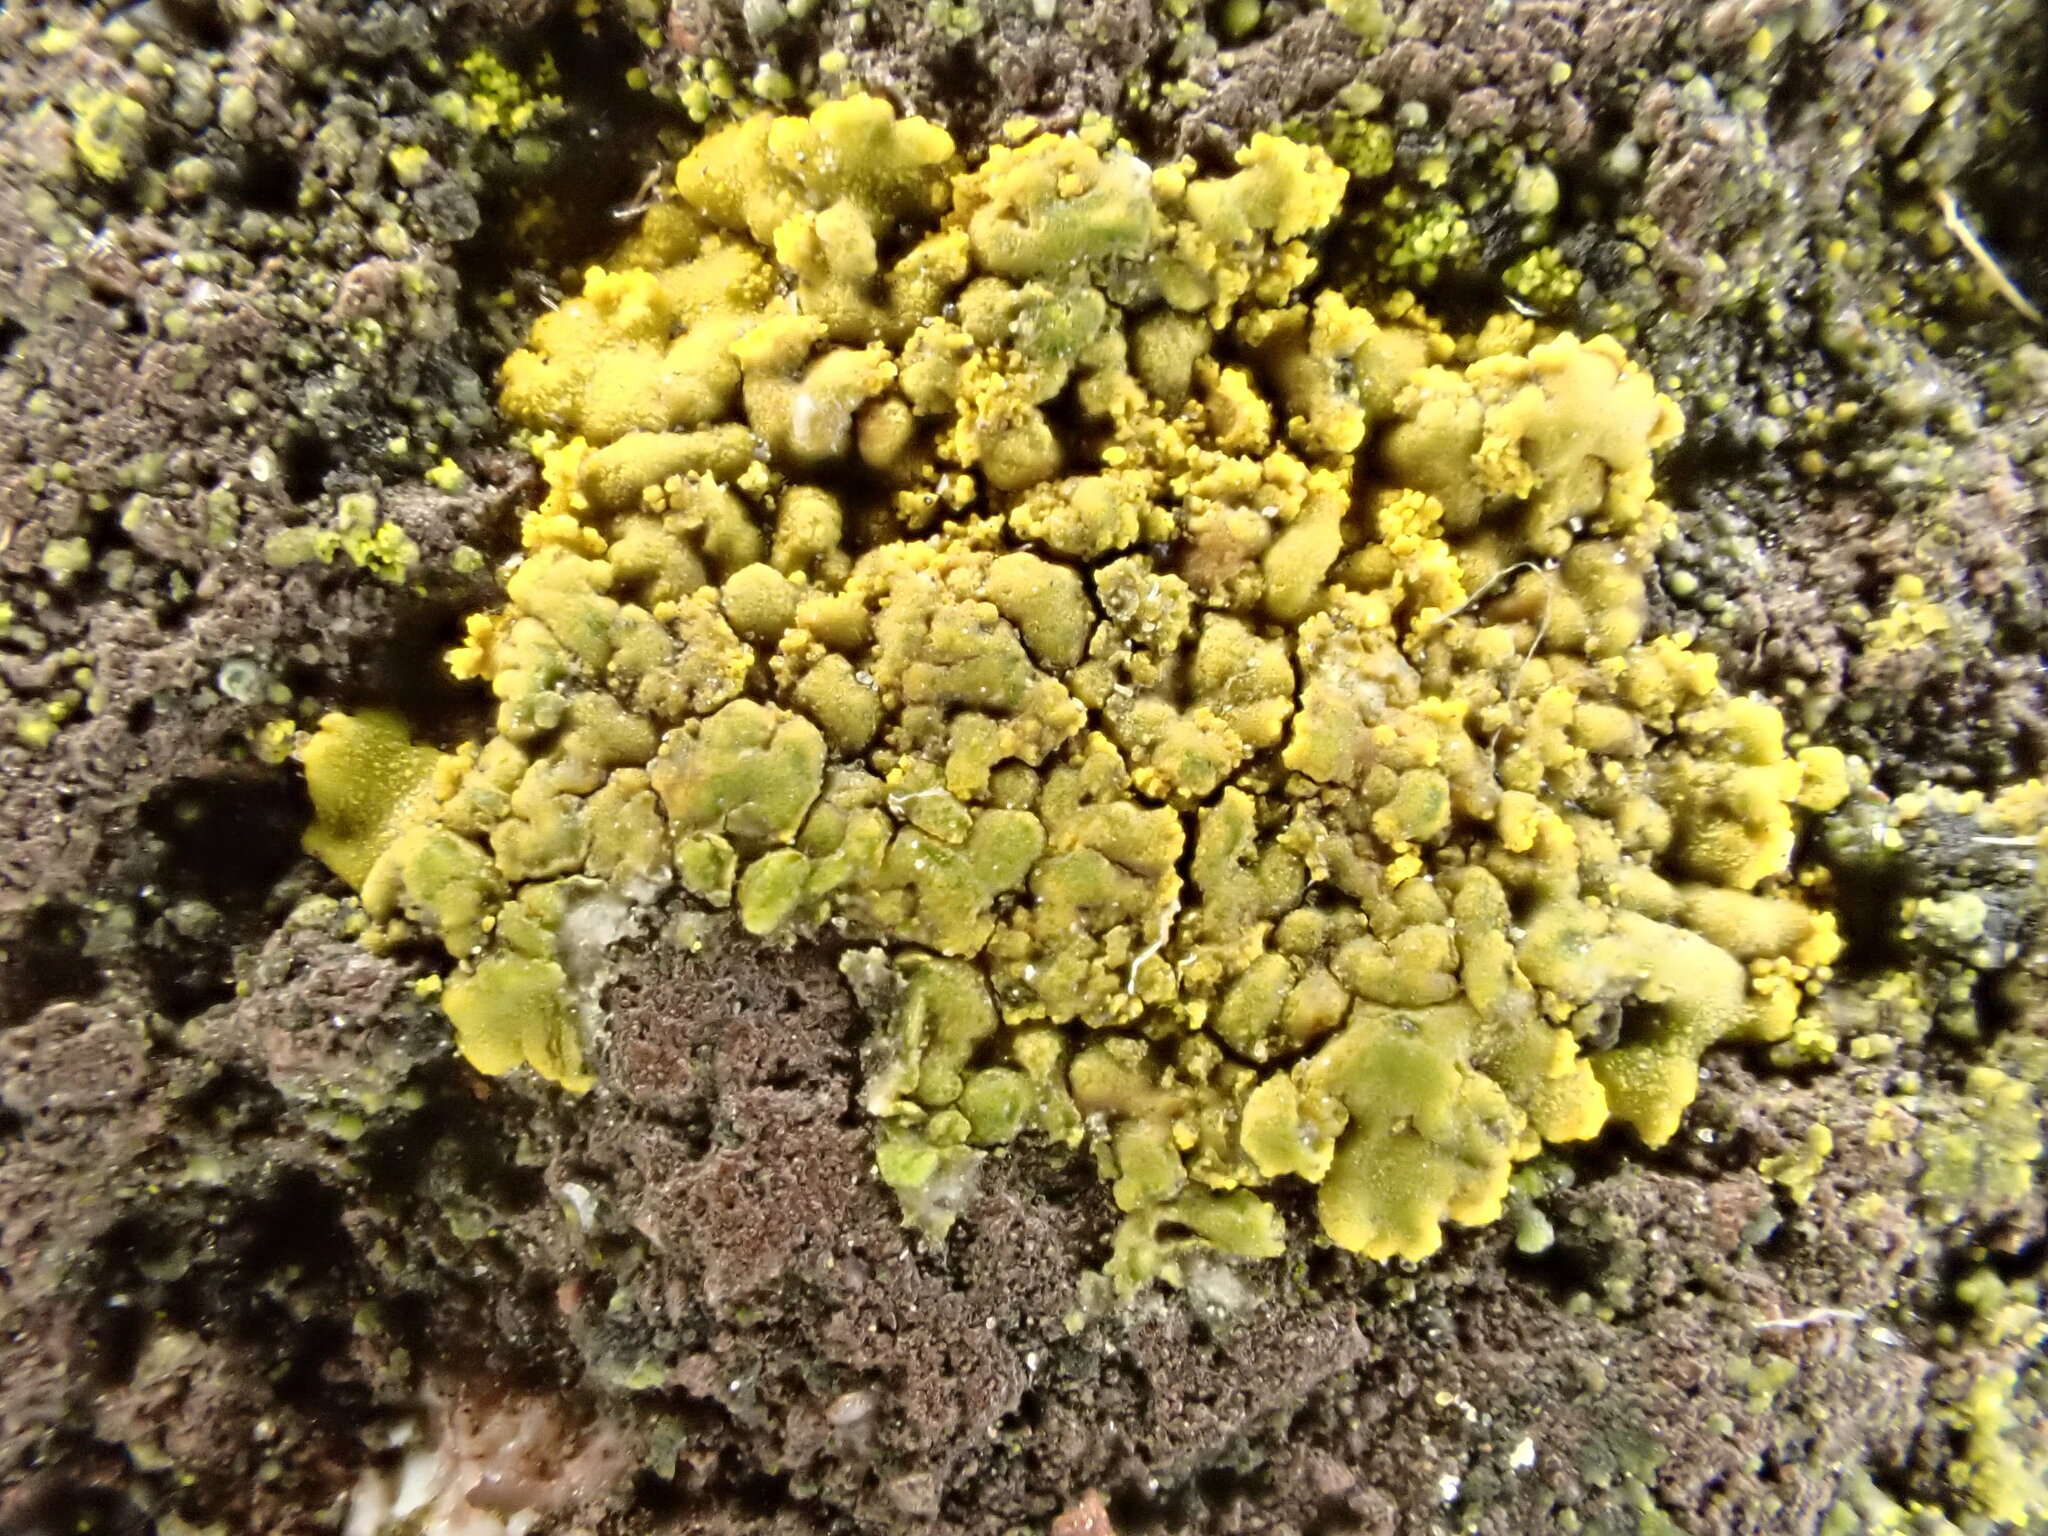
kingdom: Fungi
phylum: Ascomycota
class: Lecanoromycetes
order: Teloschistales
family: Teloschistaceae
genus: Calogaya
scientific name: Calogaya decipiens
